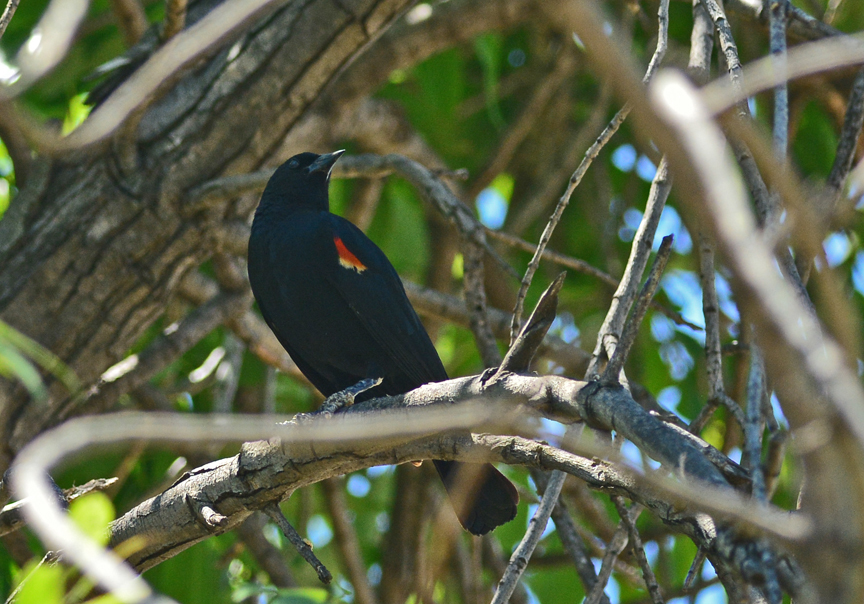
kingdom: Animalia
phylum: Chordata
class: Aves
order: Passeriformes
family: Icteridae
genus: Agelaius
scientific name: Agelaius phoeniceus
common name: Red-winged blackbird
